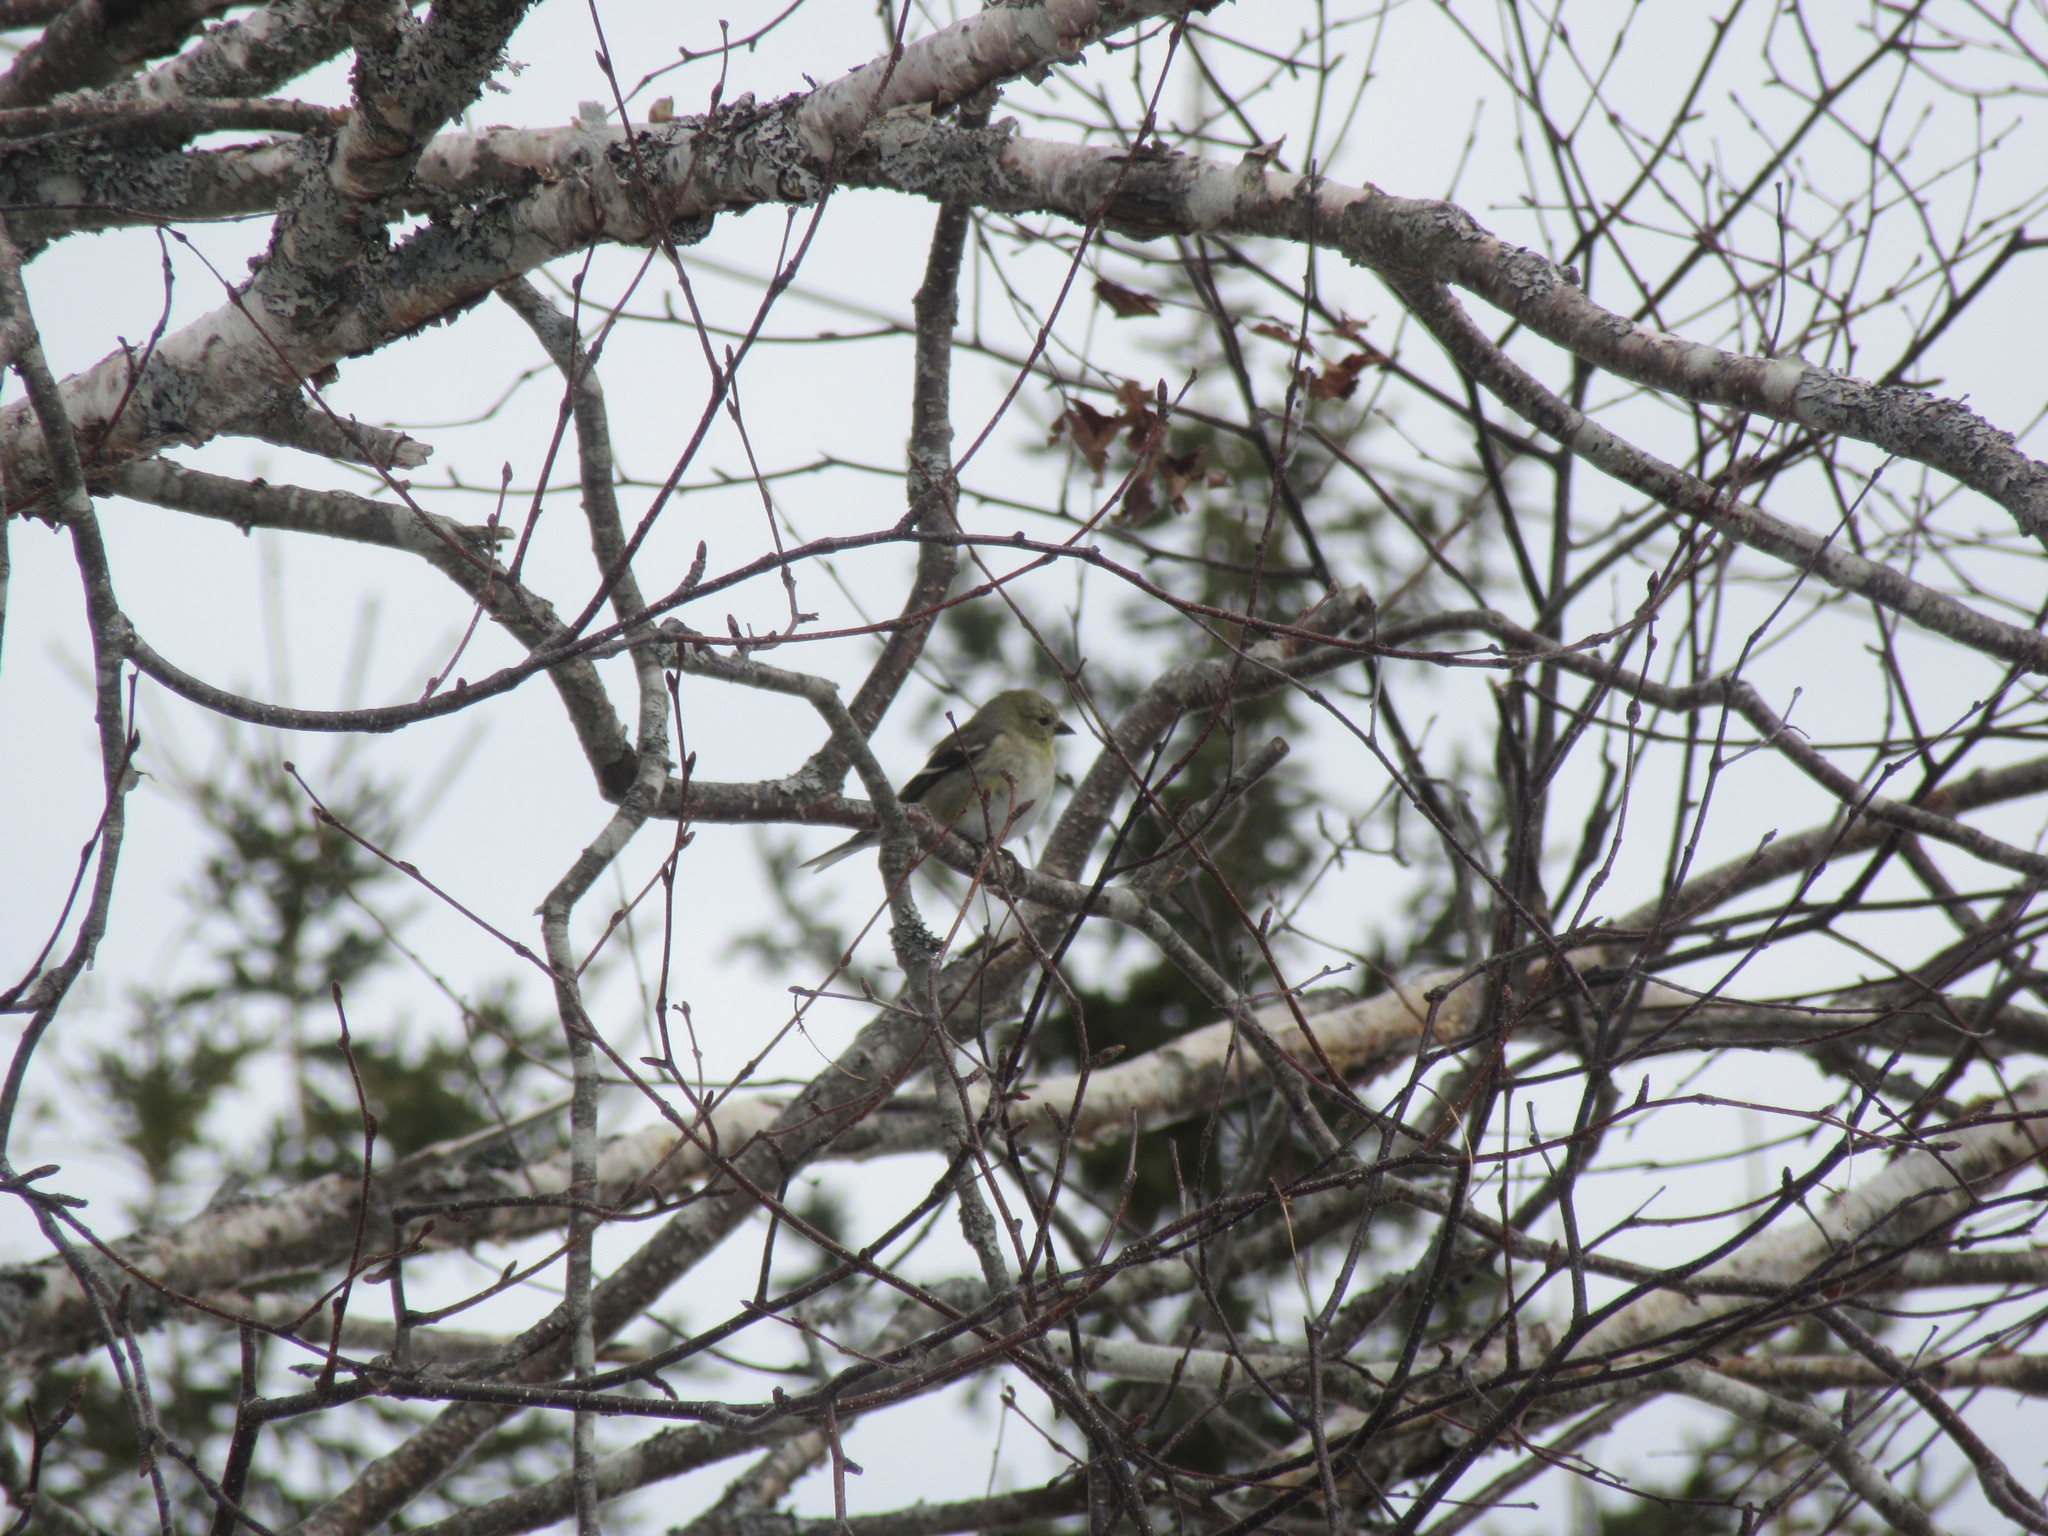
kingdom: Animalia
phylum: Chordata
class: Aves
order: Passeriformes
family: Fringillidae
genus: Spinus
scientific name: Spinus tristis
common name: American goldfinch
